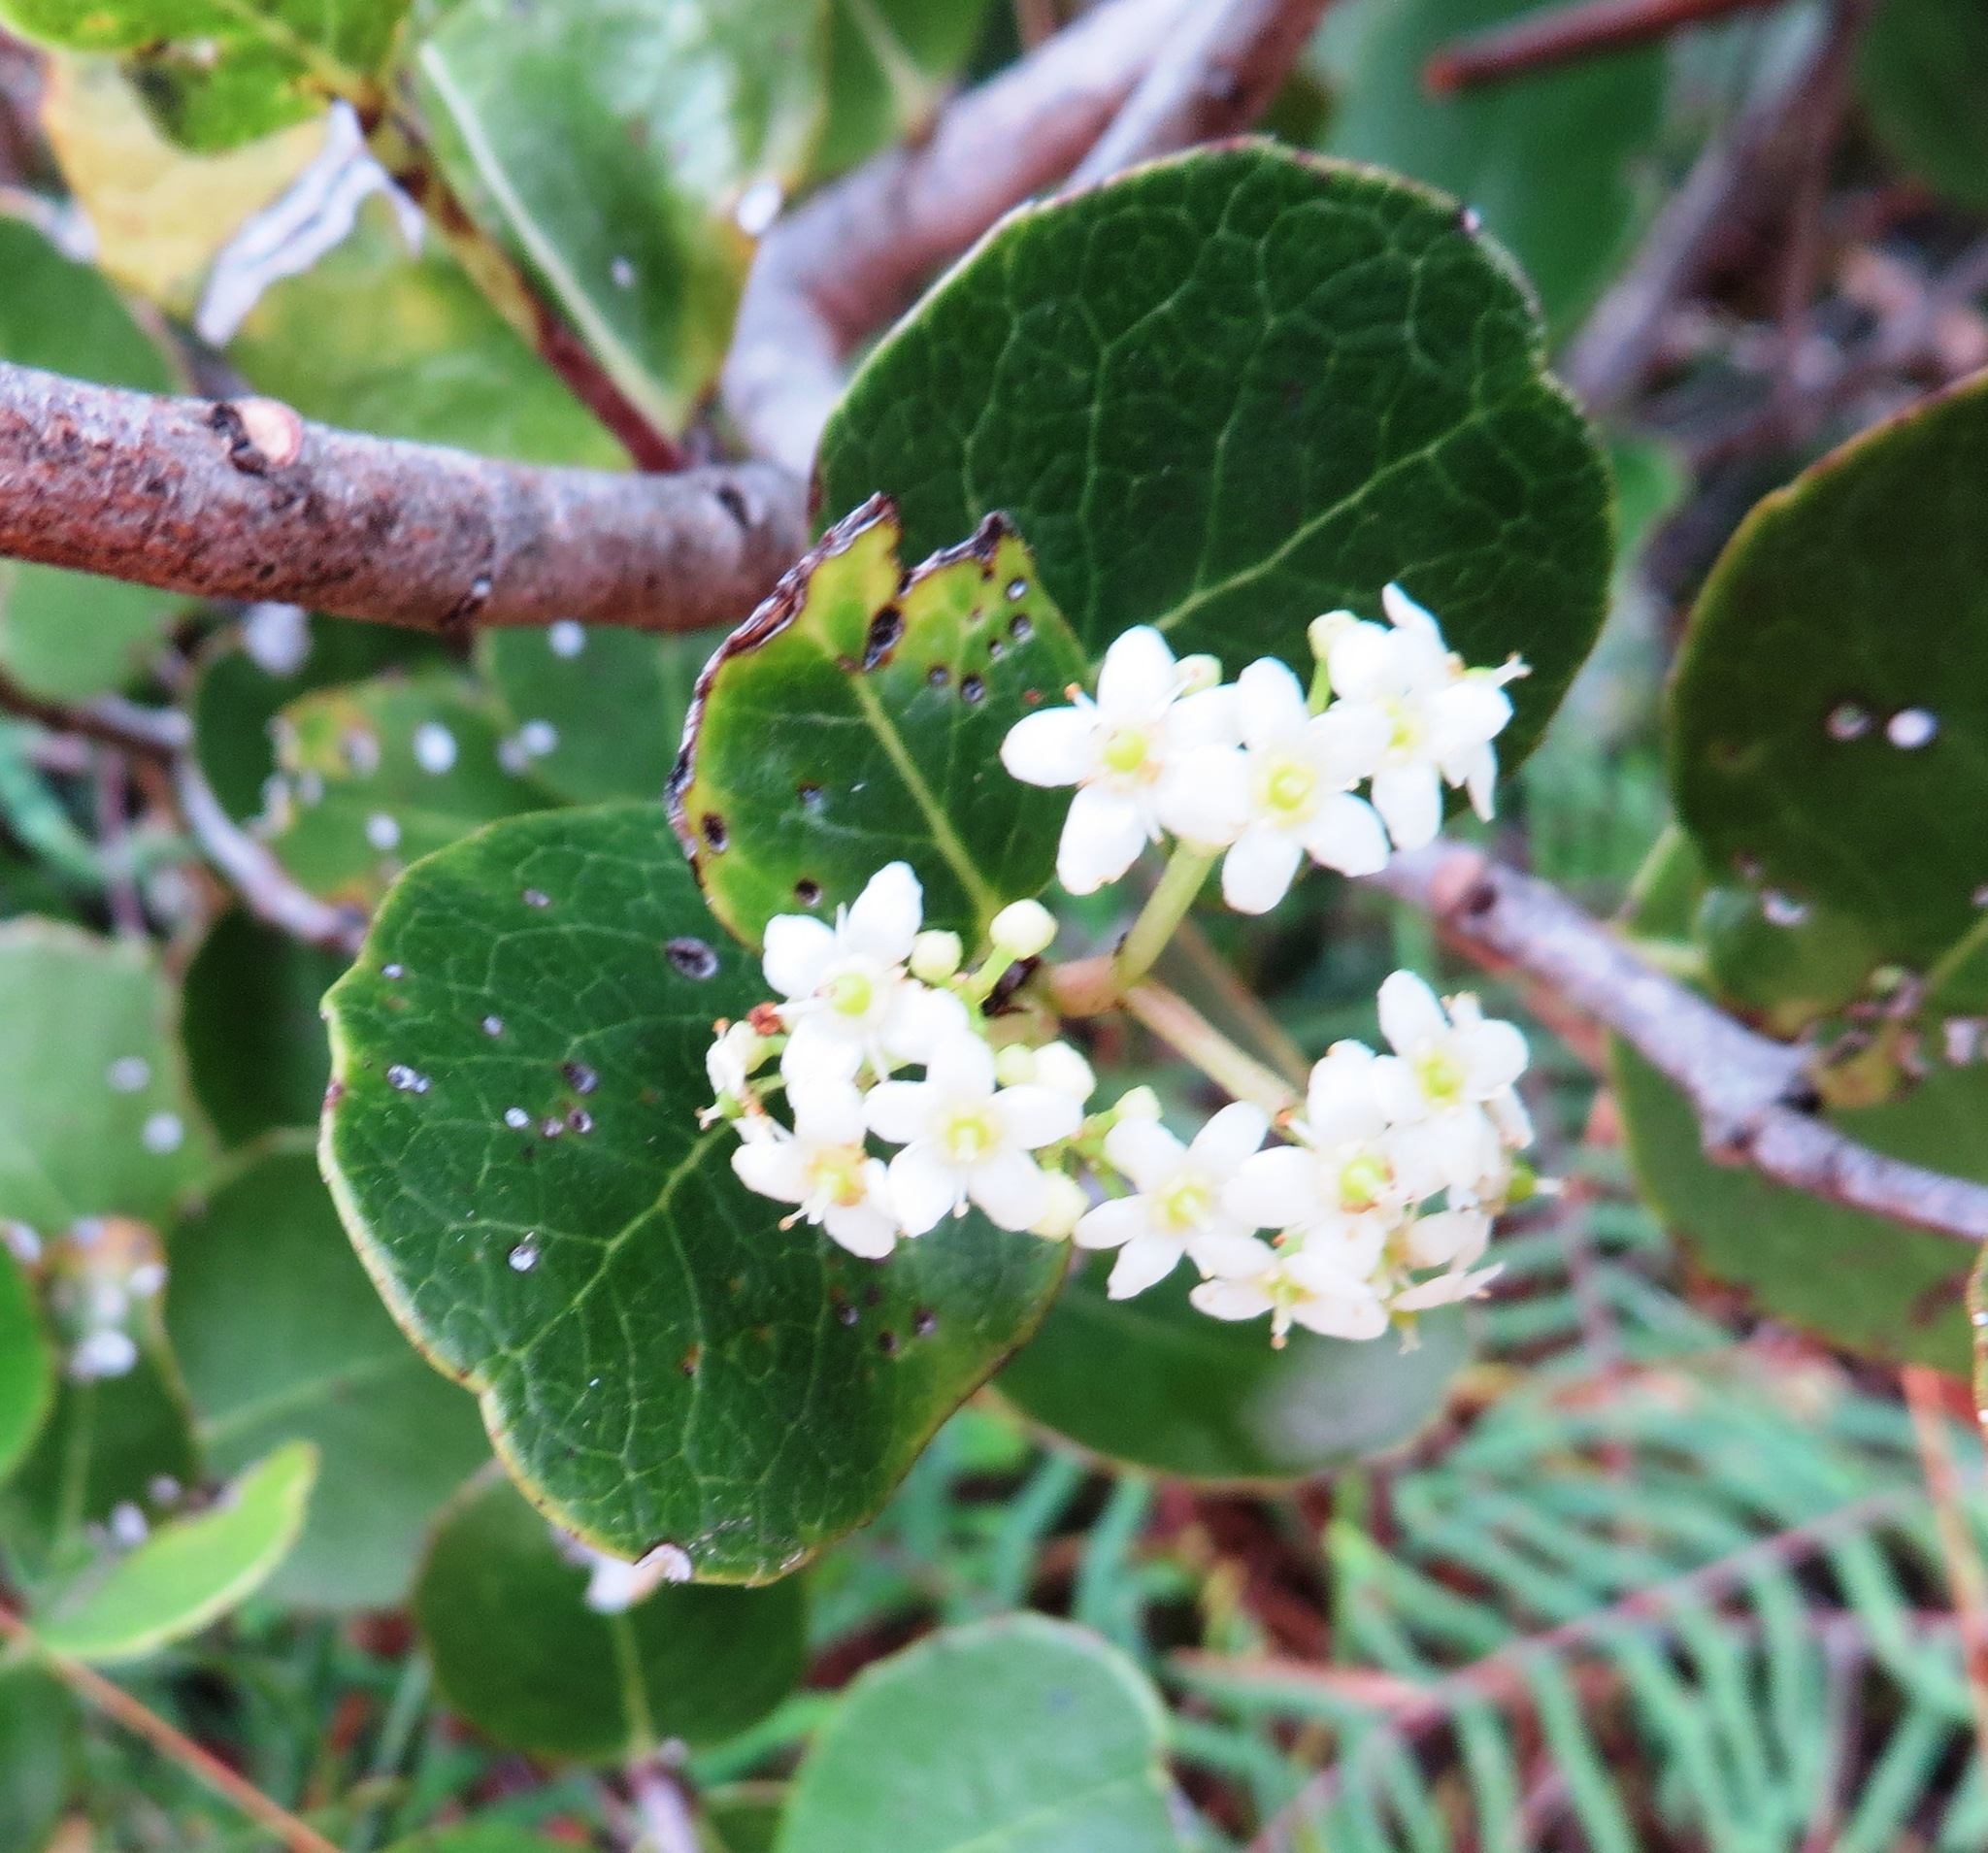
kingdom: Plantae
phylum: Tracheophyta
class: Magnoliopsida
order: Celastrales
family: Celastraceae
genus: Cassine
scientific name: Cassine peragua
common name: Cape saffron
